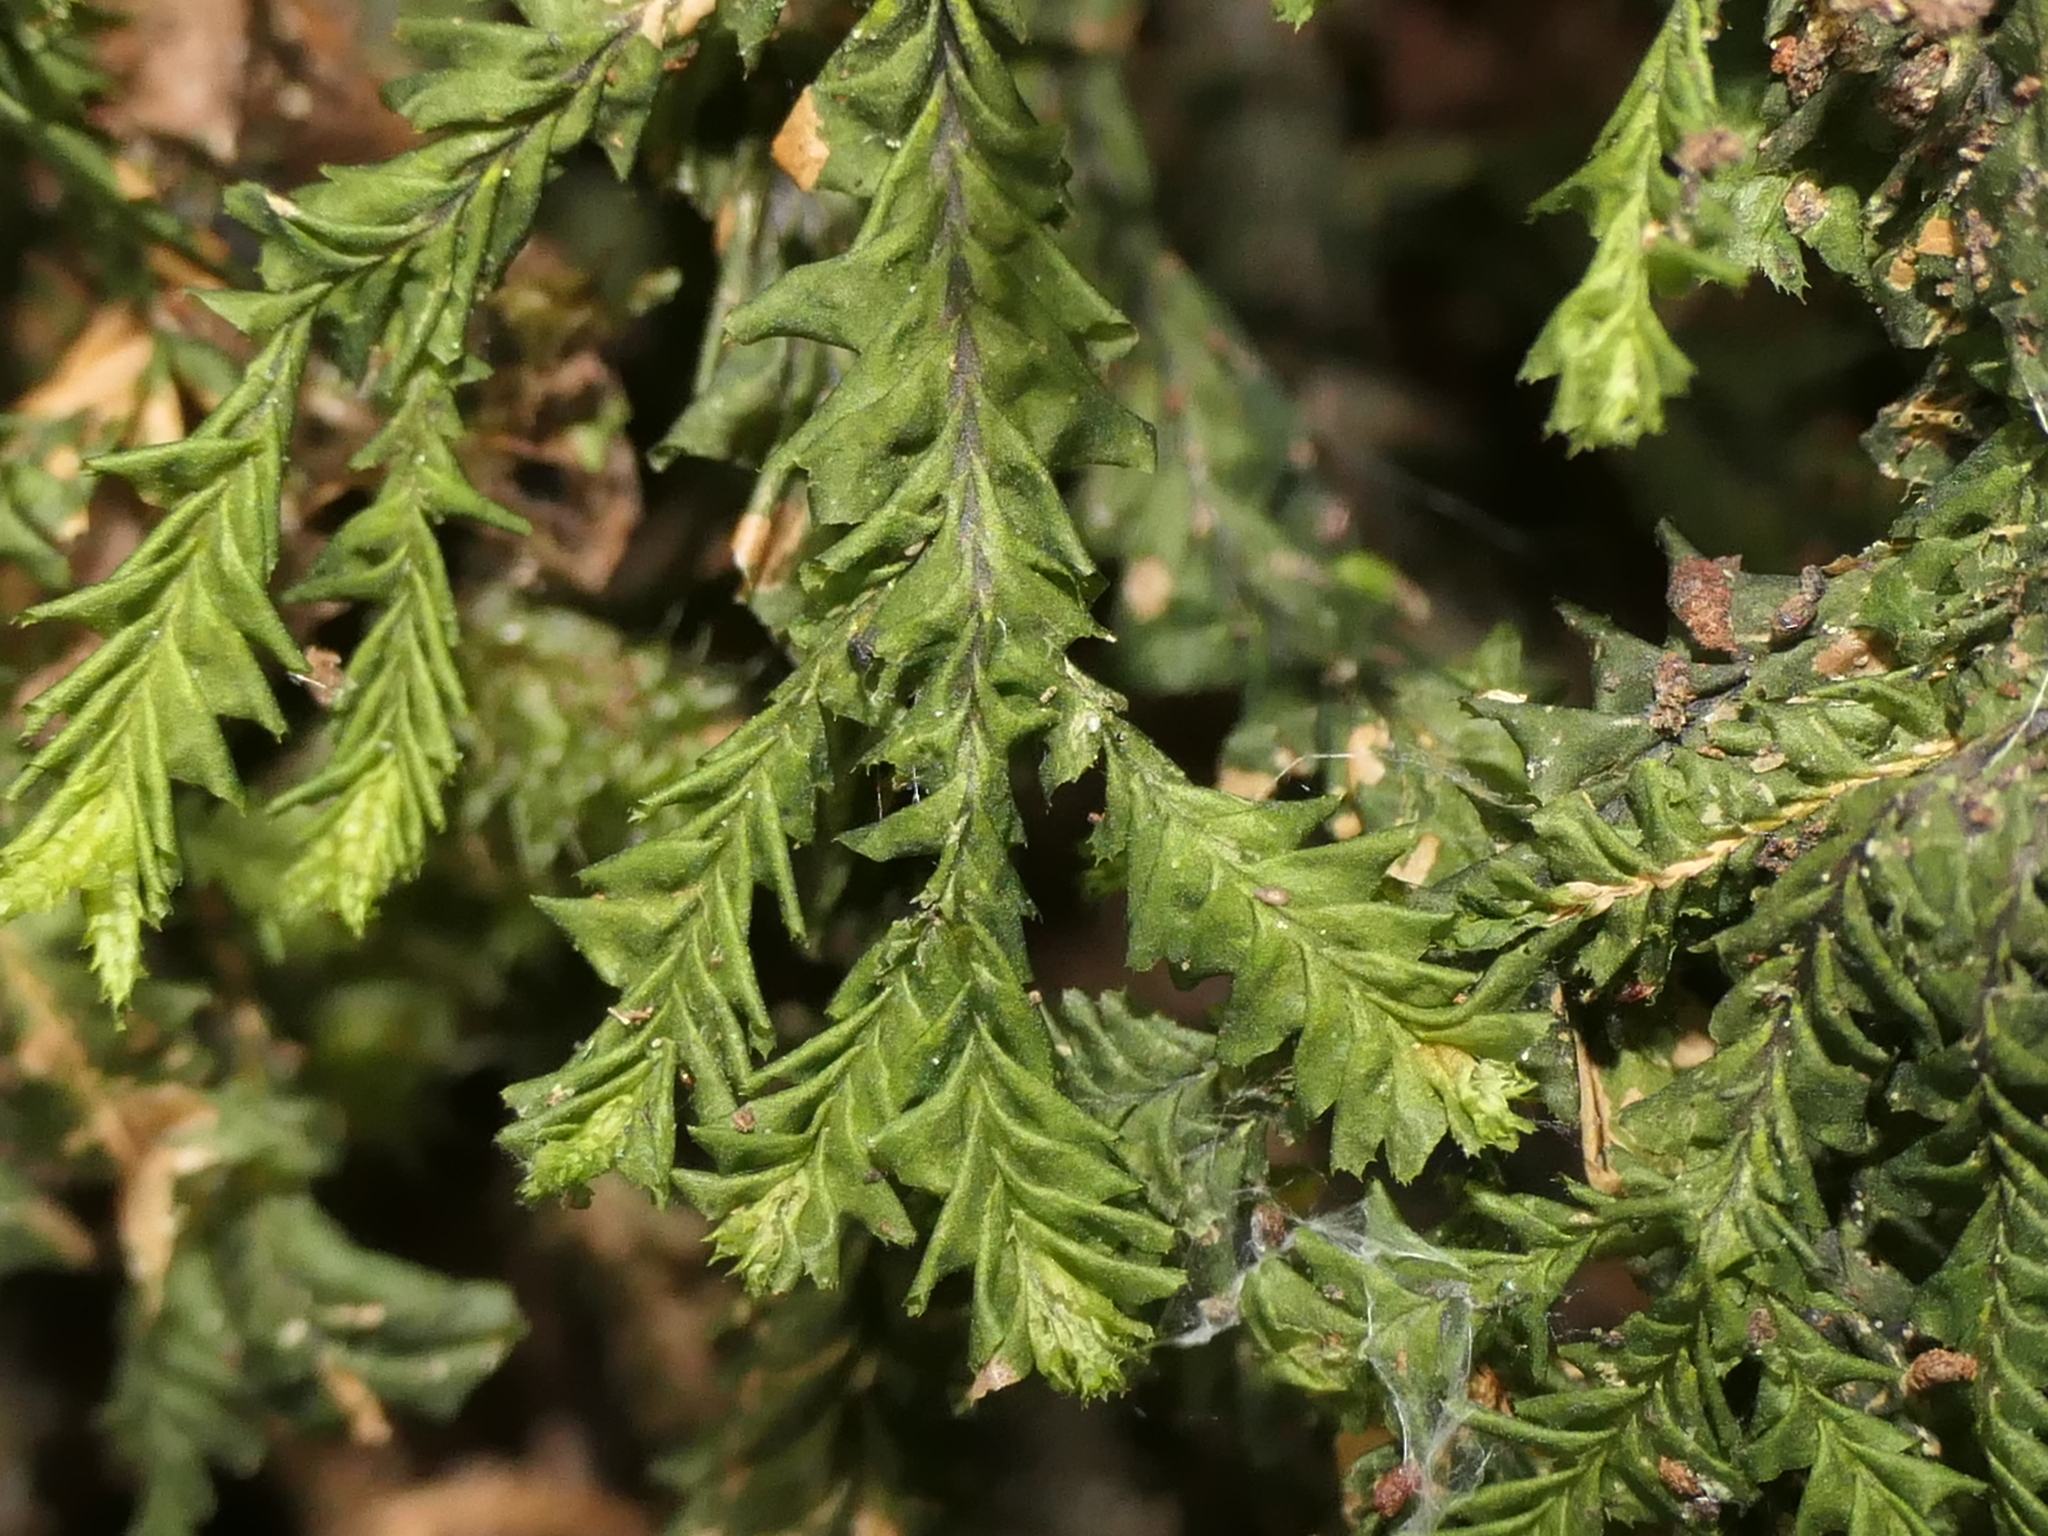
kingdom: Plantae
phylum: Marchantiophyta
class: Jungermanniopsida
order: Jungermanniales
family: Plagiochilaceae
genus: Plagiochila
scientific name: Plagiochila trispicata
